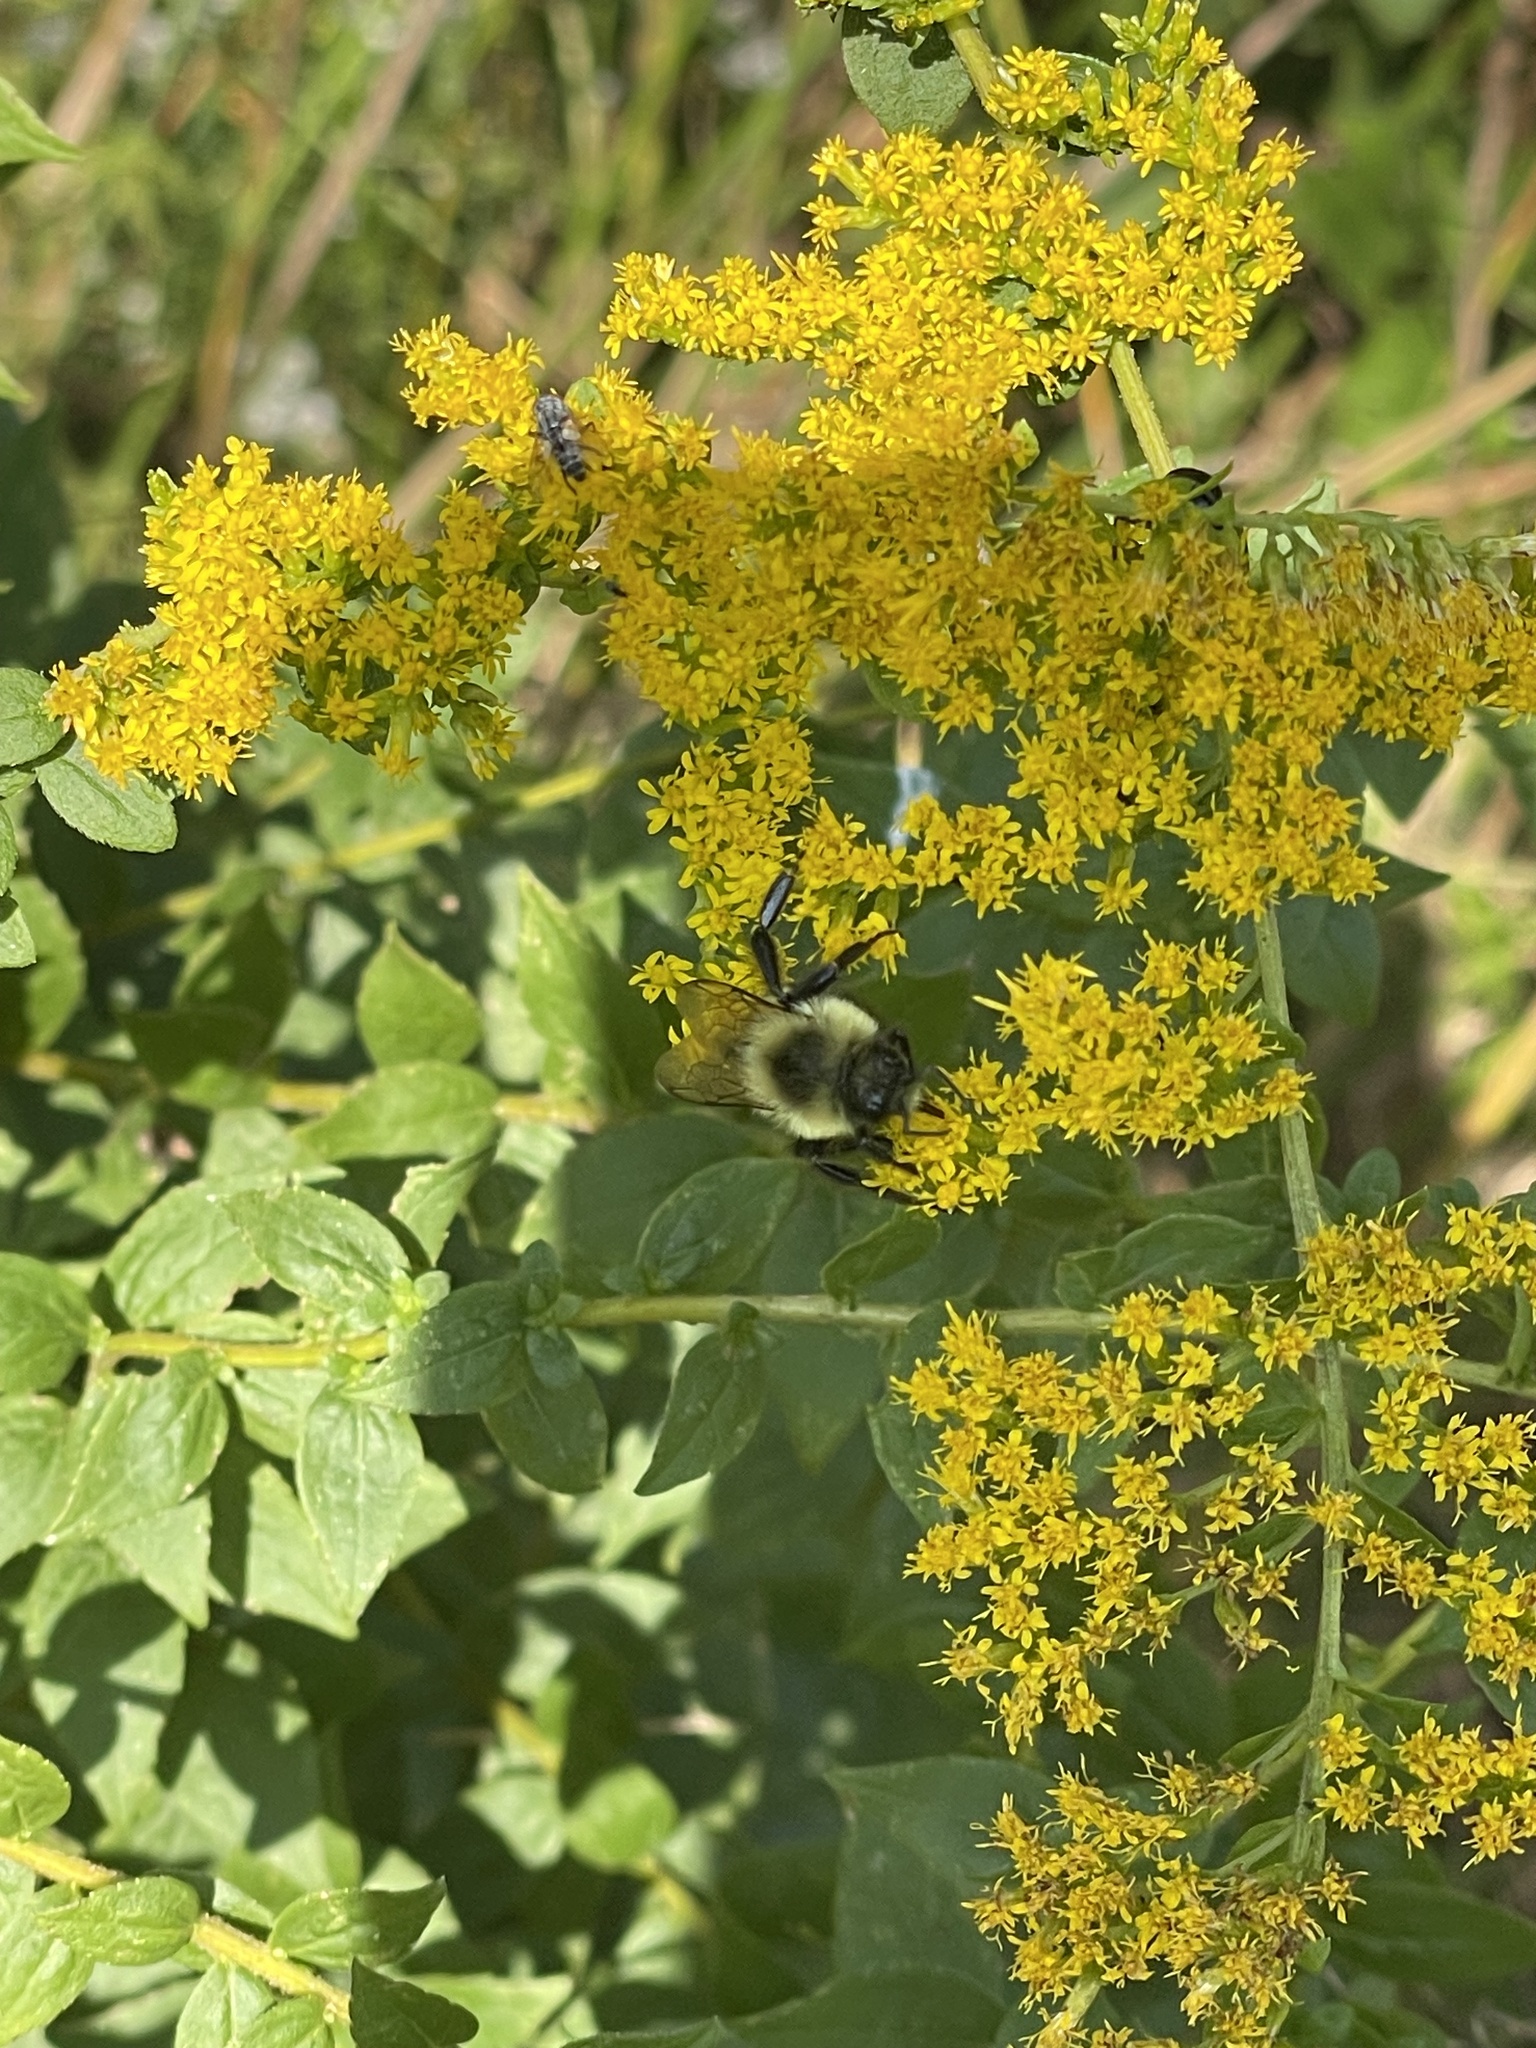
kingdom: Animalia
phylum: Arthropoda
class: Insecta
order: Hymenoptera
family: Apidae
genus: Bombus
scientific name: Bombus impatiens
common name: Common eastern bumble bee
